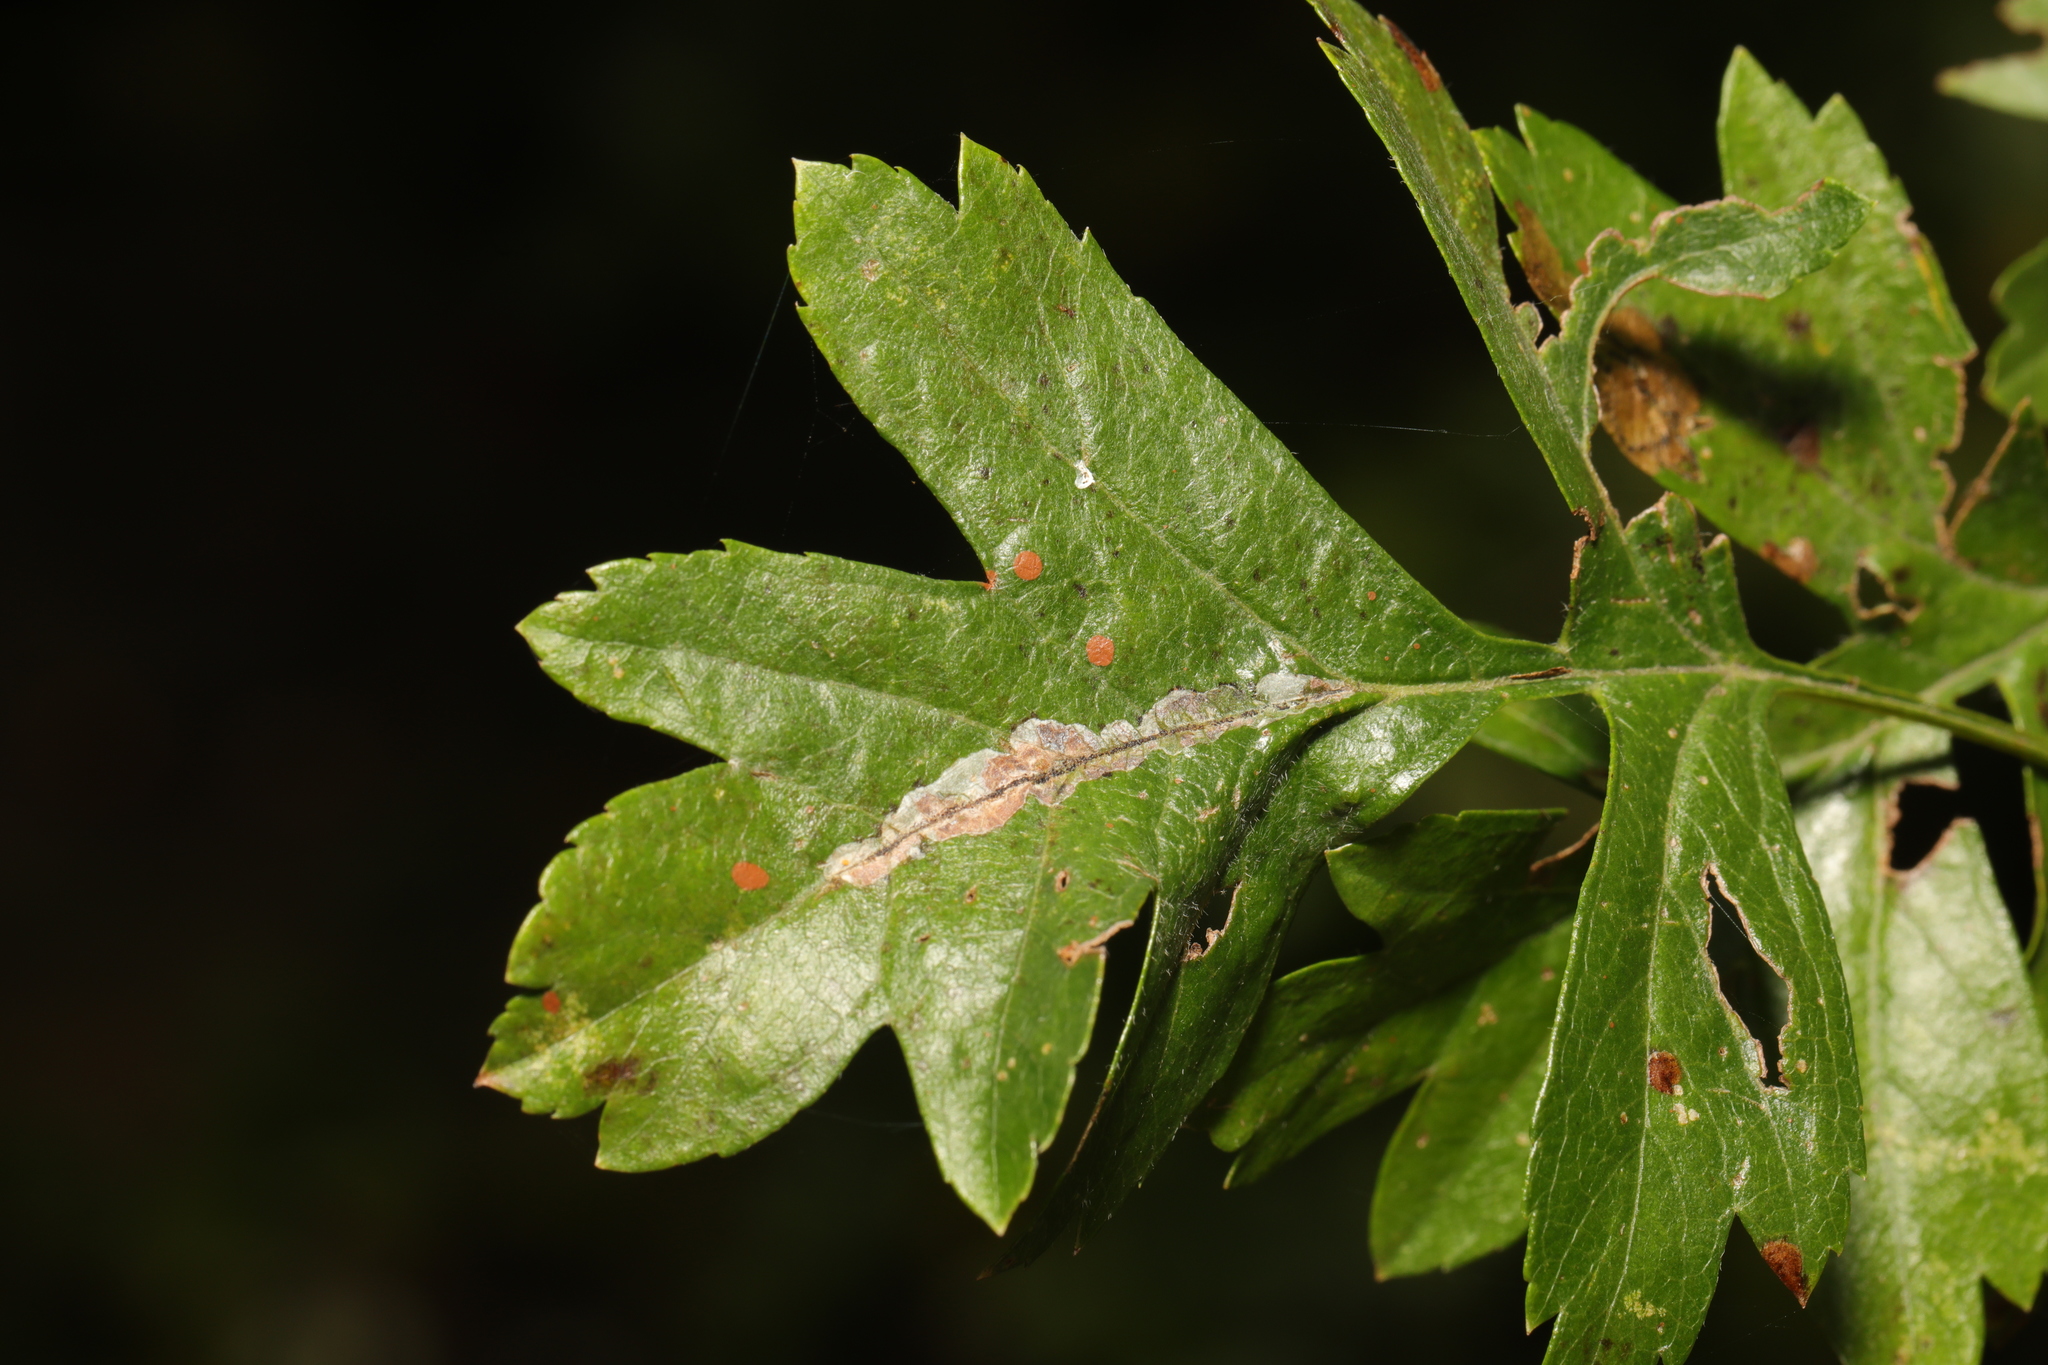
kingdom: Animalia
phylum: Arthropoda
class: Insecta
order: Lepidoptera
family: Gracillariidae
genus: Phyllonorycter
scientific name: Phyllonorycter leucographella
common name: Firethorn leaf-miner
